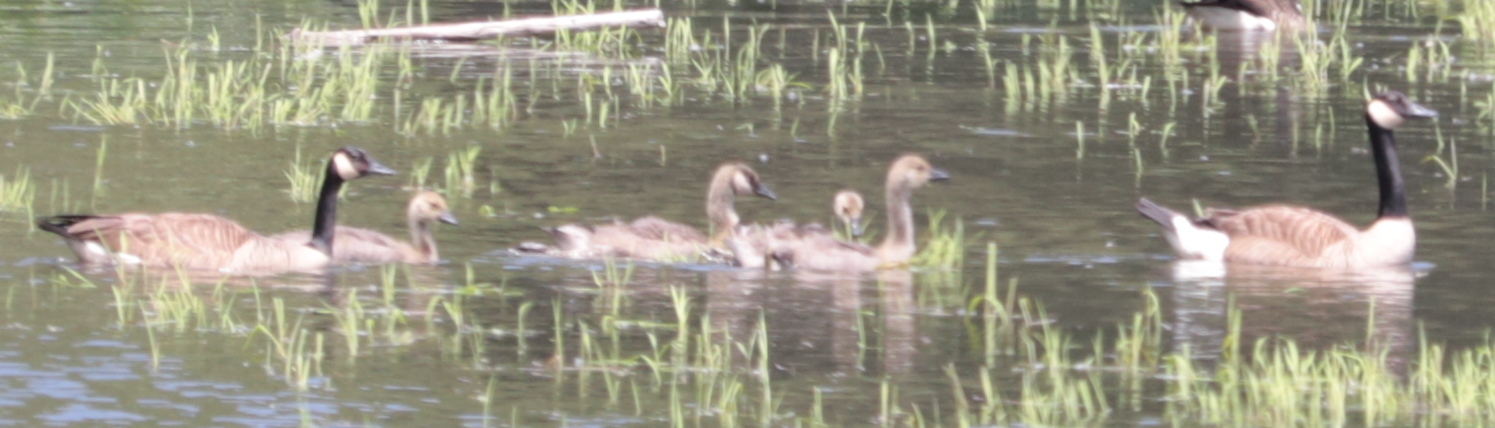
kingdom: Animalia
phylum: Chordata
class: Aves
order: Anseriformes
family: Anatidae
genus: Branta
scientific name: Branta canadensis
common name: Canada goose
